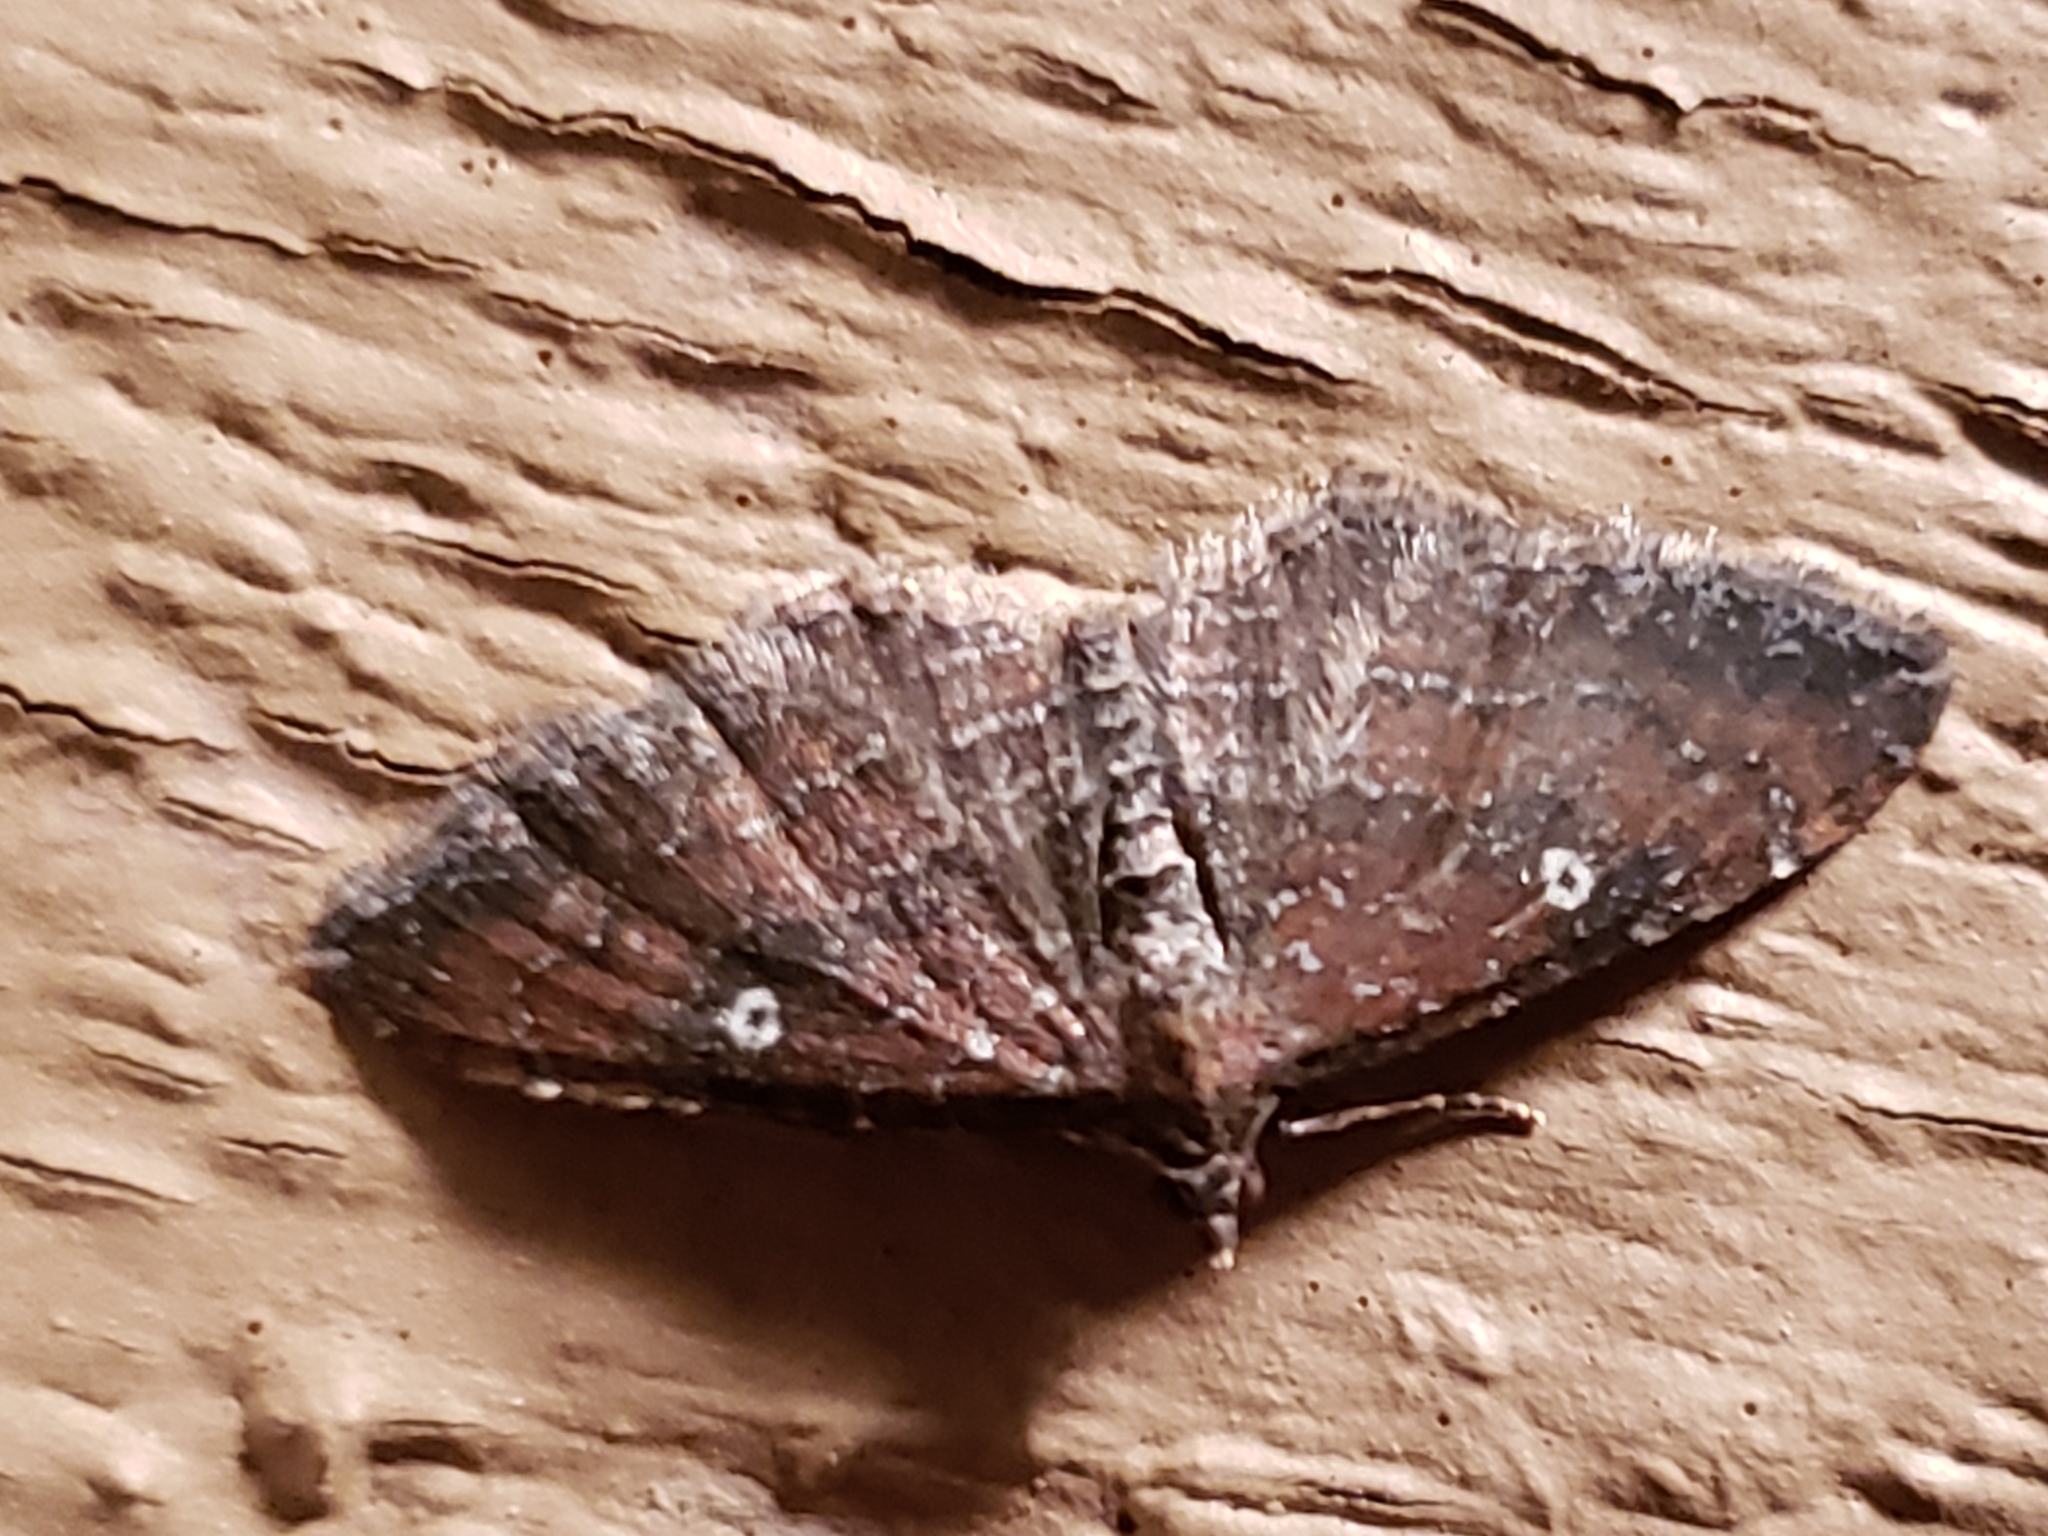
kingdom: Animalia
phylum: Arthropoda
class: Insecta
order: Lepidoptera
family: Geometridae
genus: Orthonama
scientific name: Orthonama obstipata
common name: The gem
